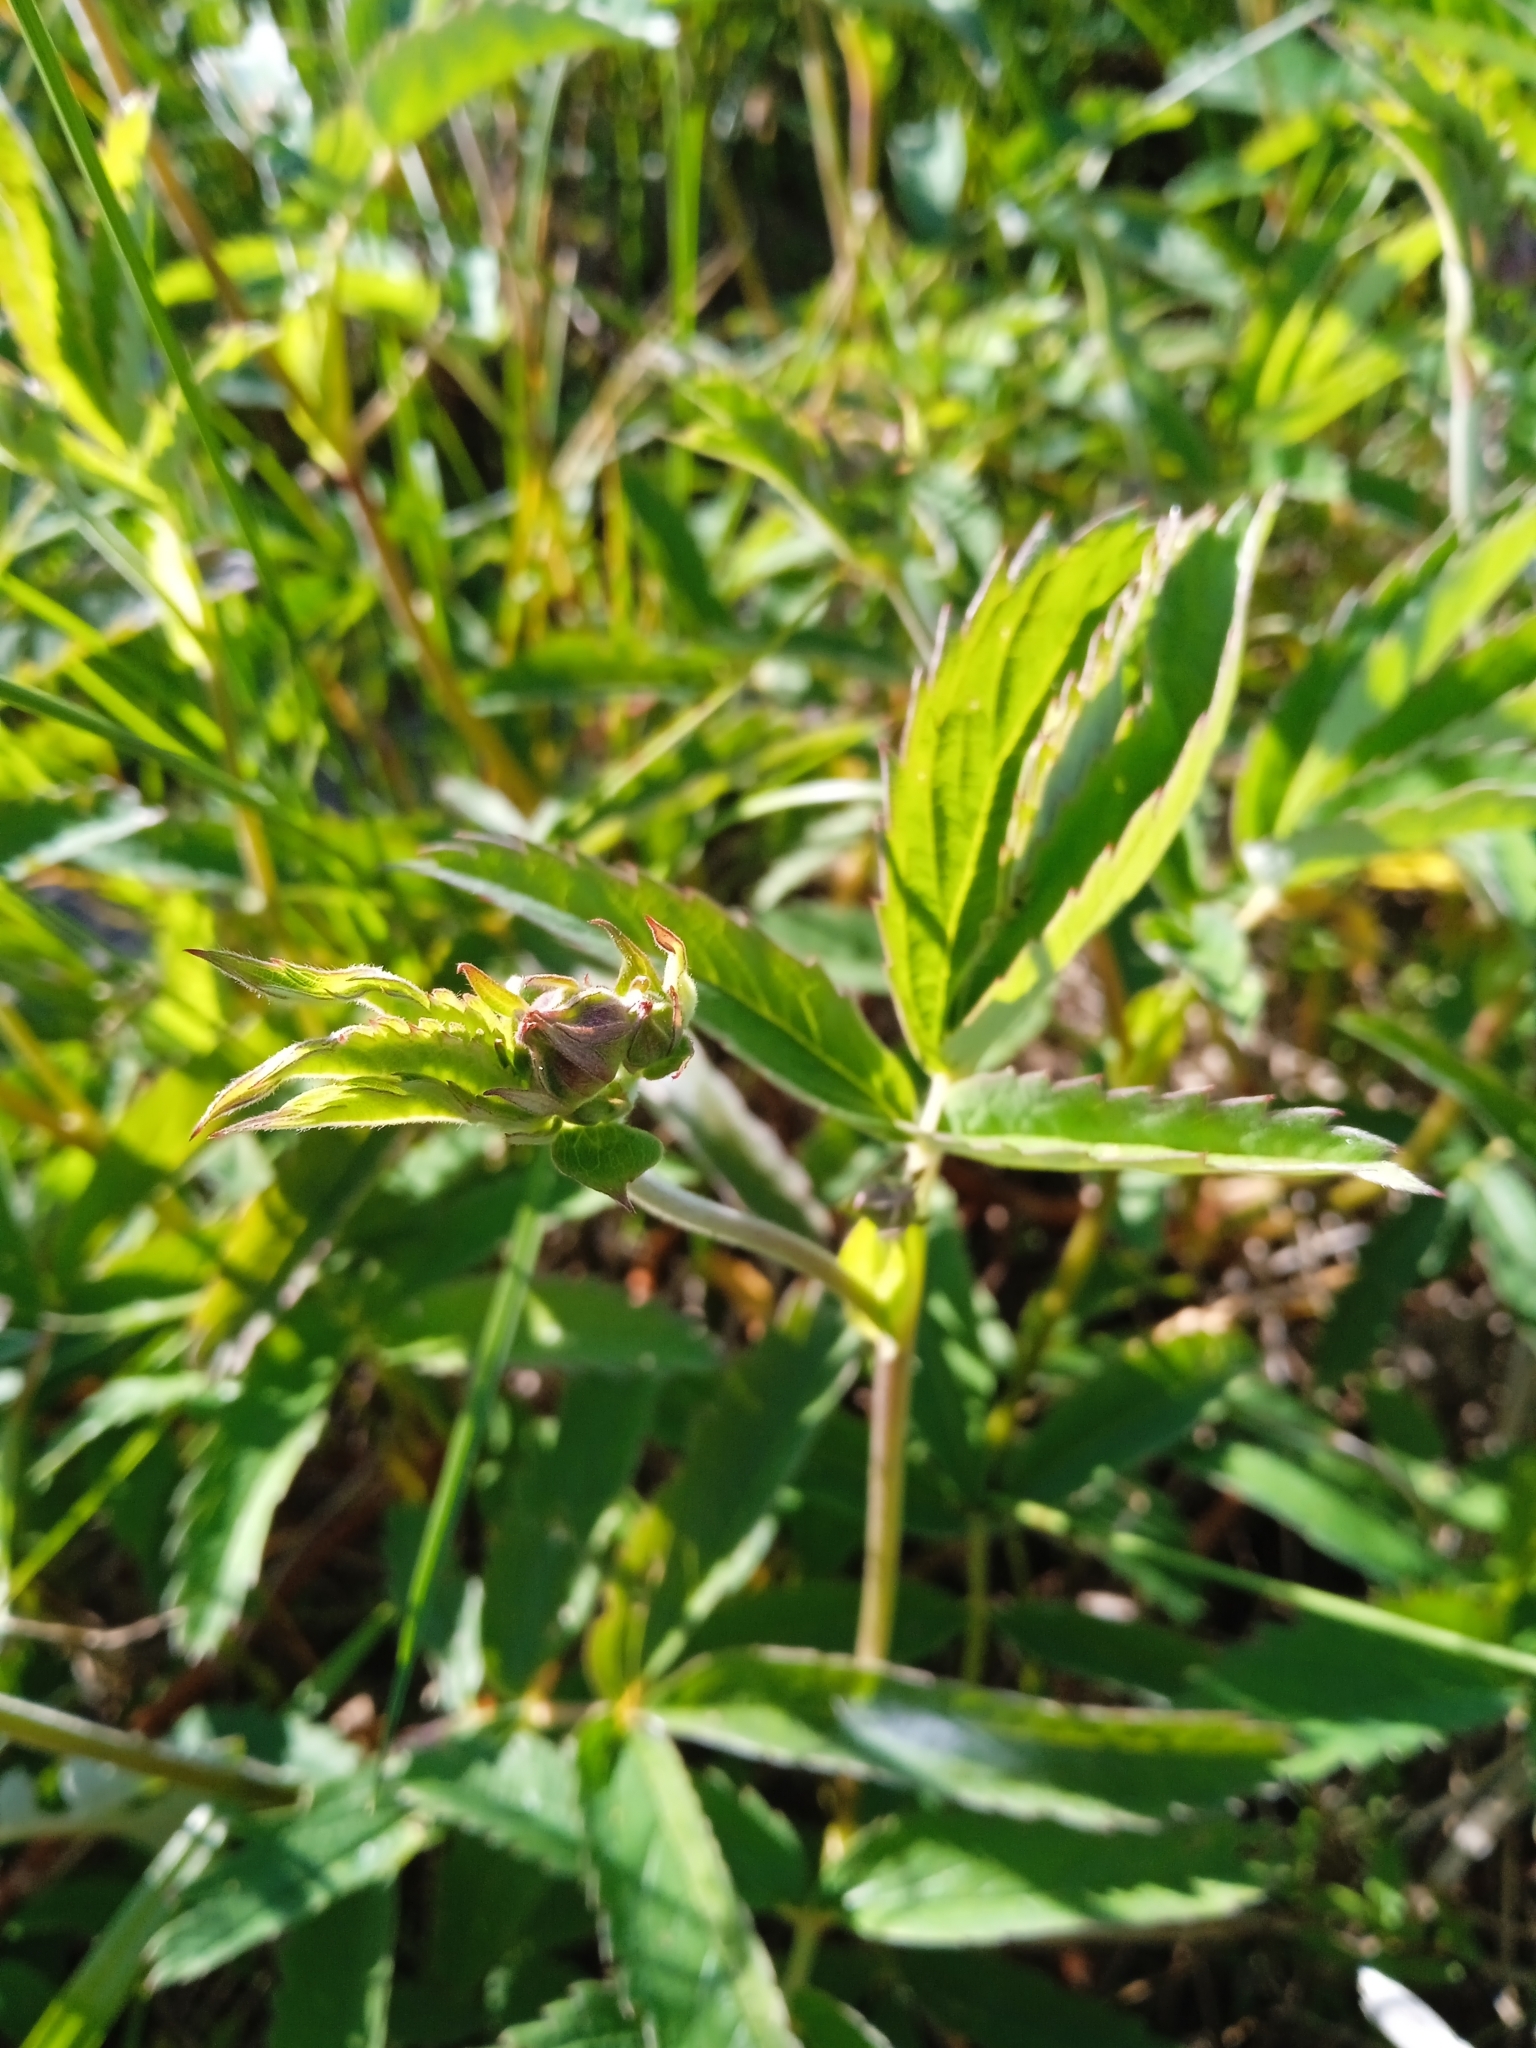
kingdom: Plantae
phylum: Tracheophyta
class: Magnoliopsida
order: Rosales
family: Rosaceae
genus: Comarum
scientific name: Comarum palustre
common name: Marsh cinquefoil
